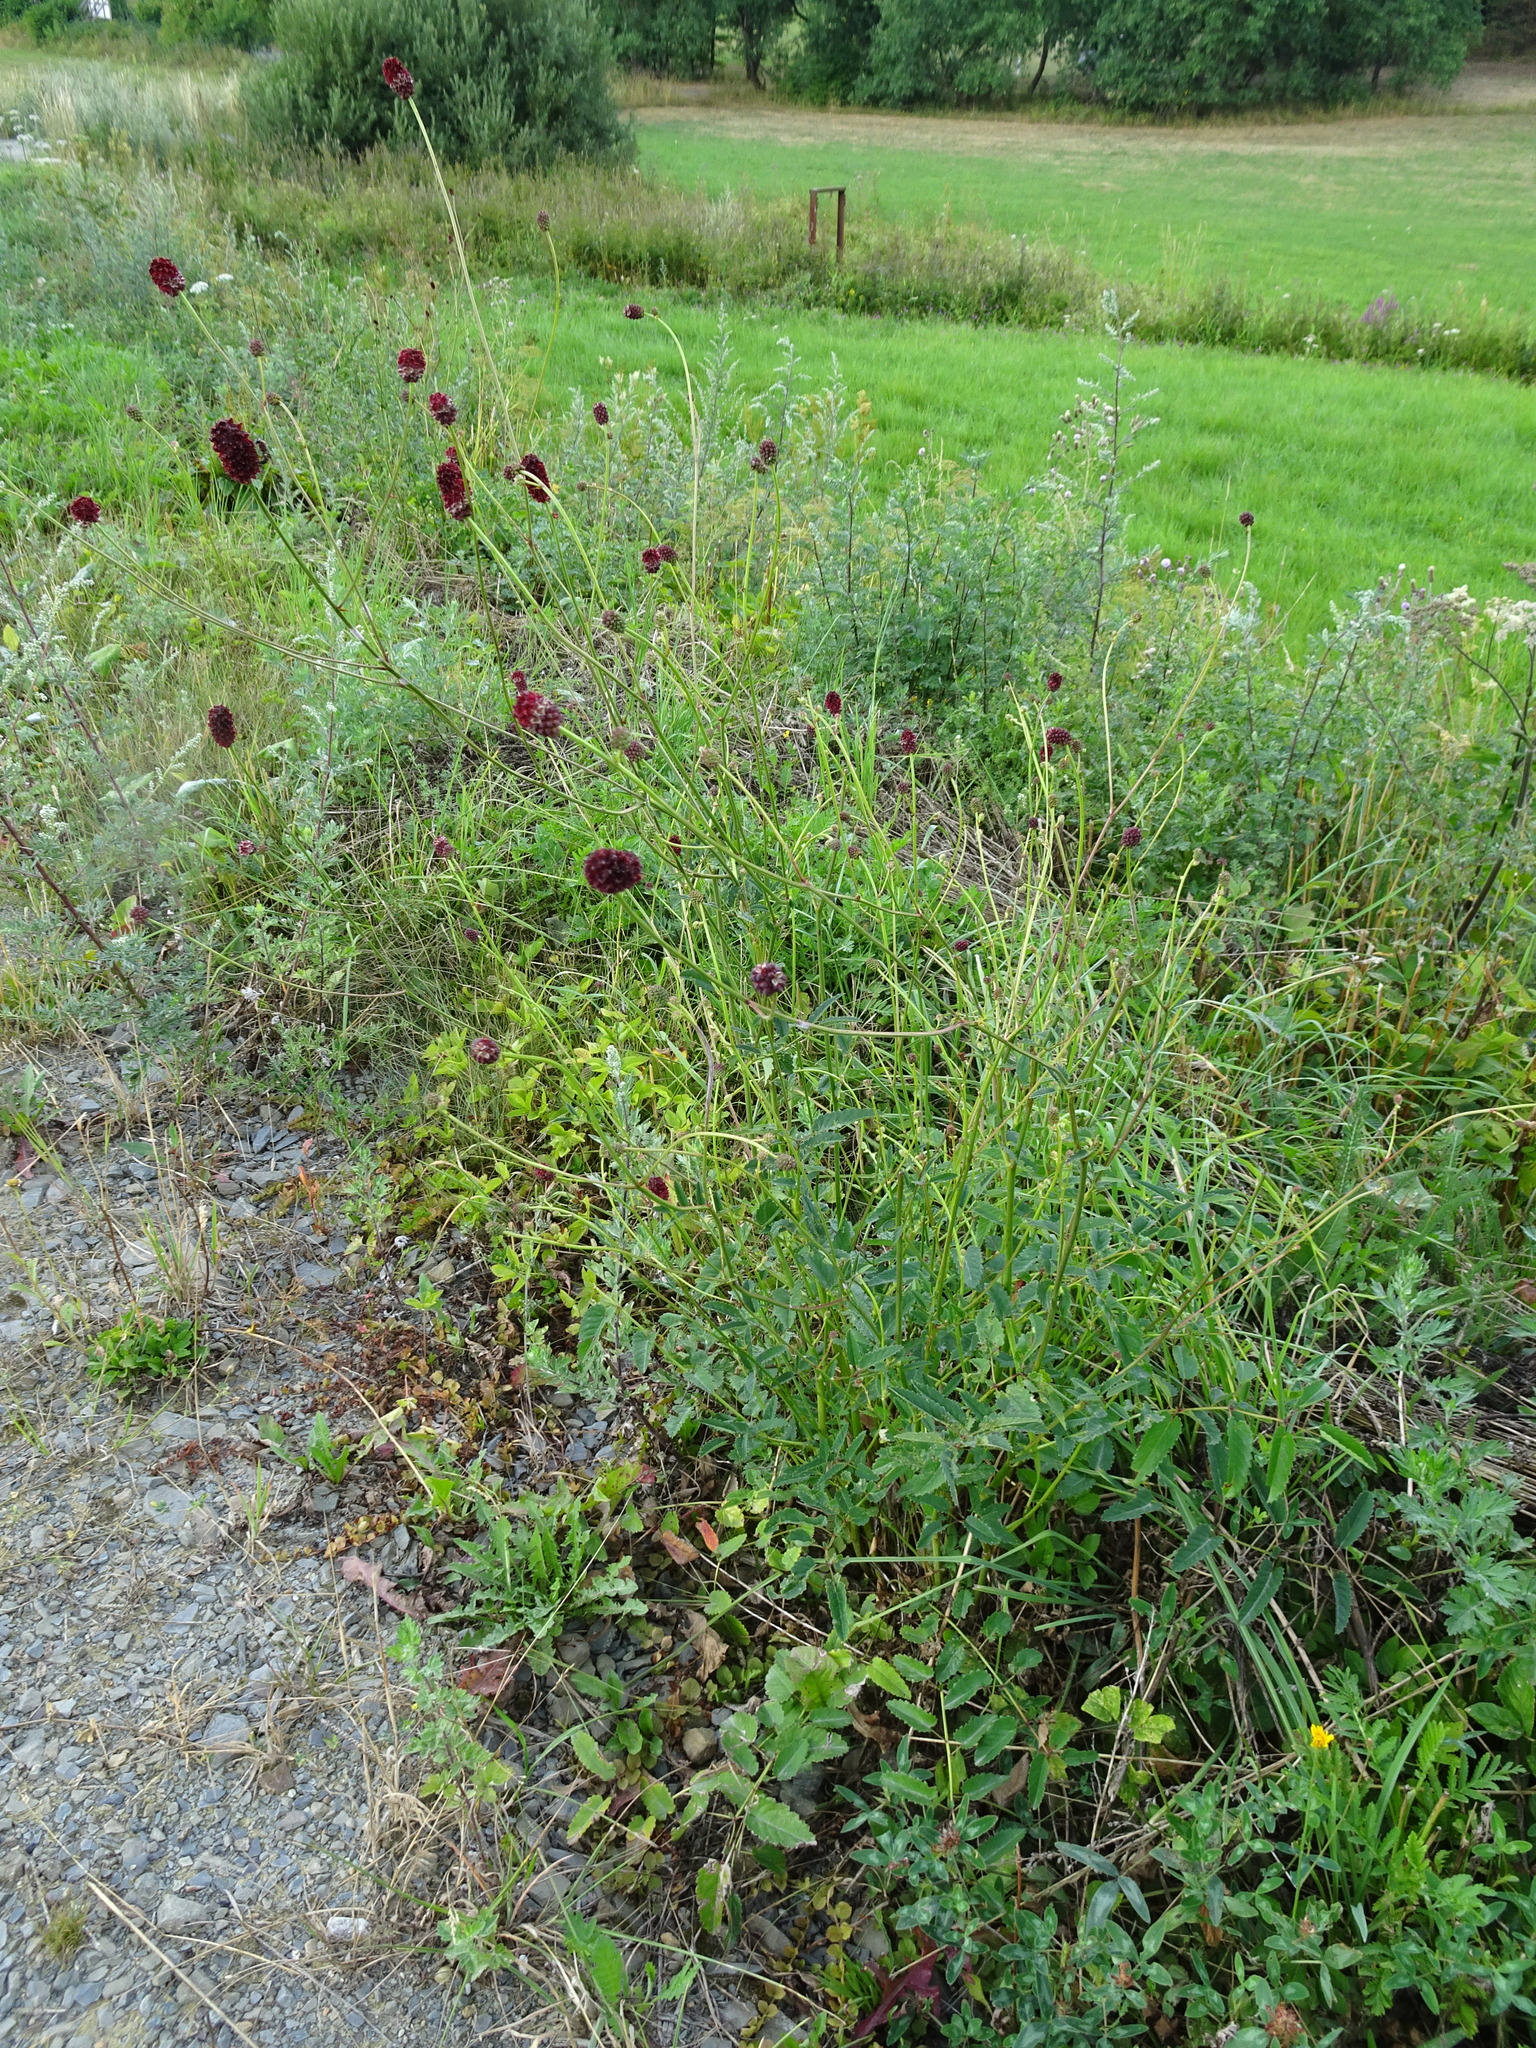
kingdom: Plantae
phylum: Tracheophyta
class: Magnoliopsida
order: Rosales
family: Rosaceae
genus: Sanguisorba
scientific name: Sanguisorba officinalis
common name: Great burnet
